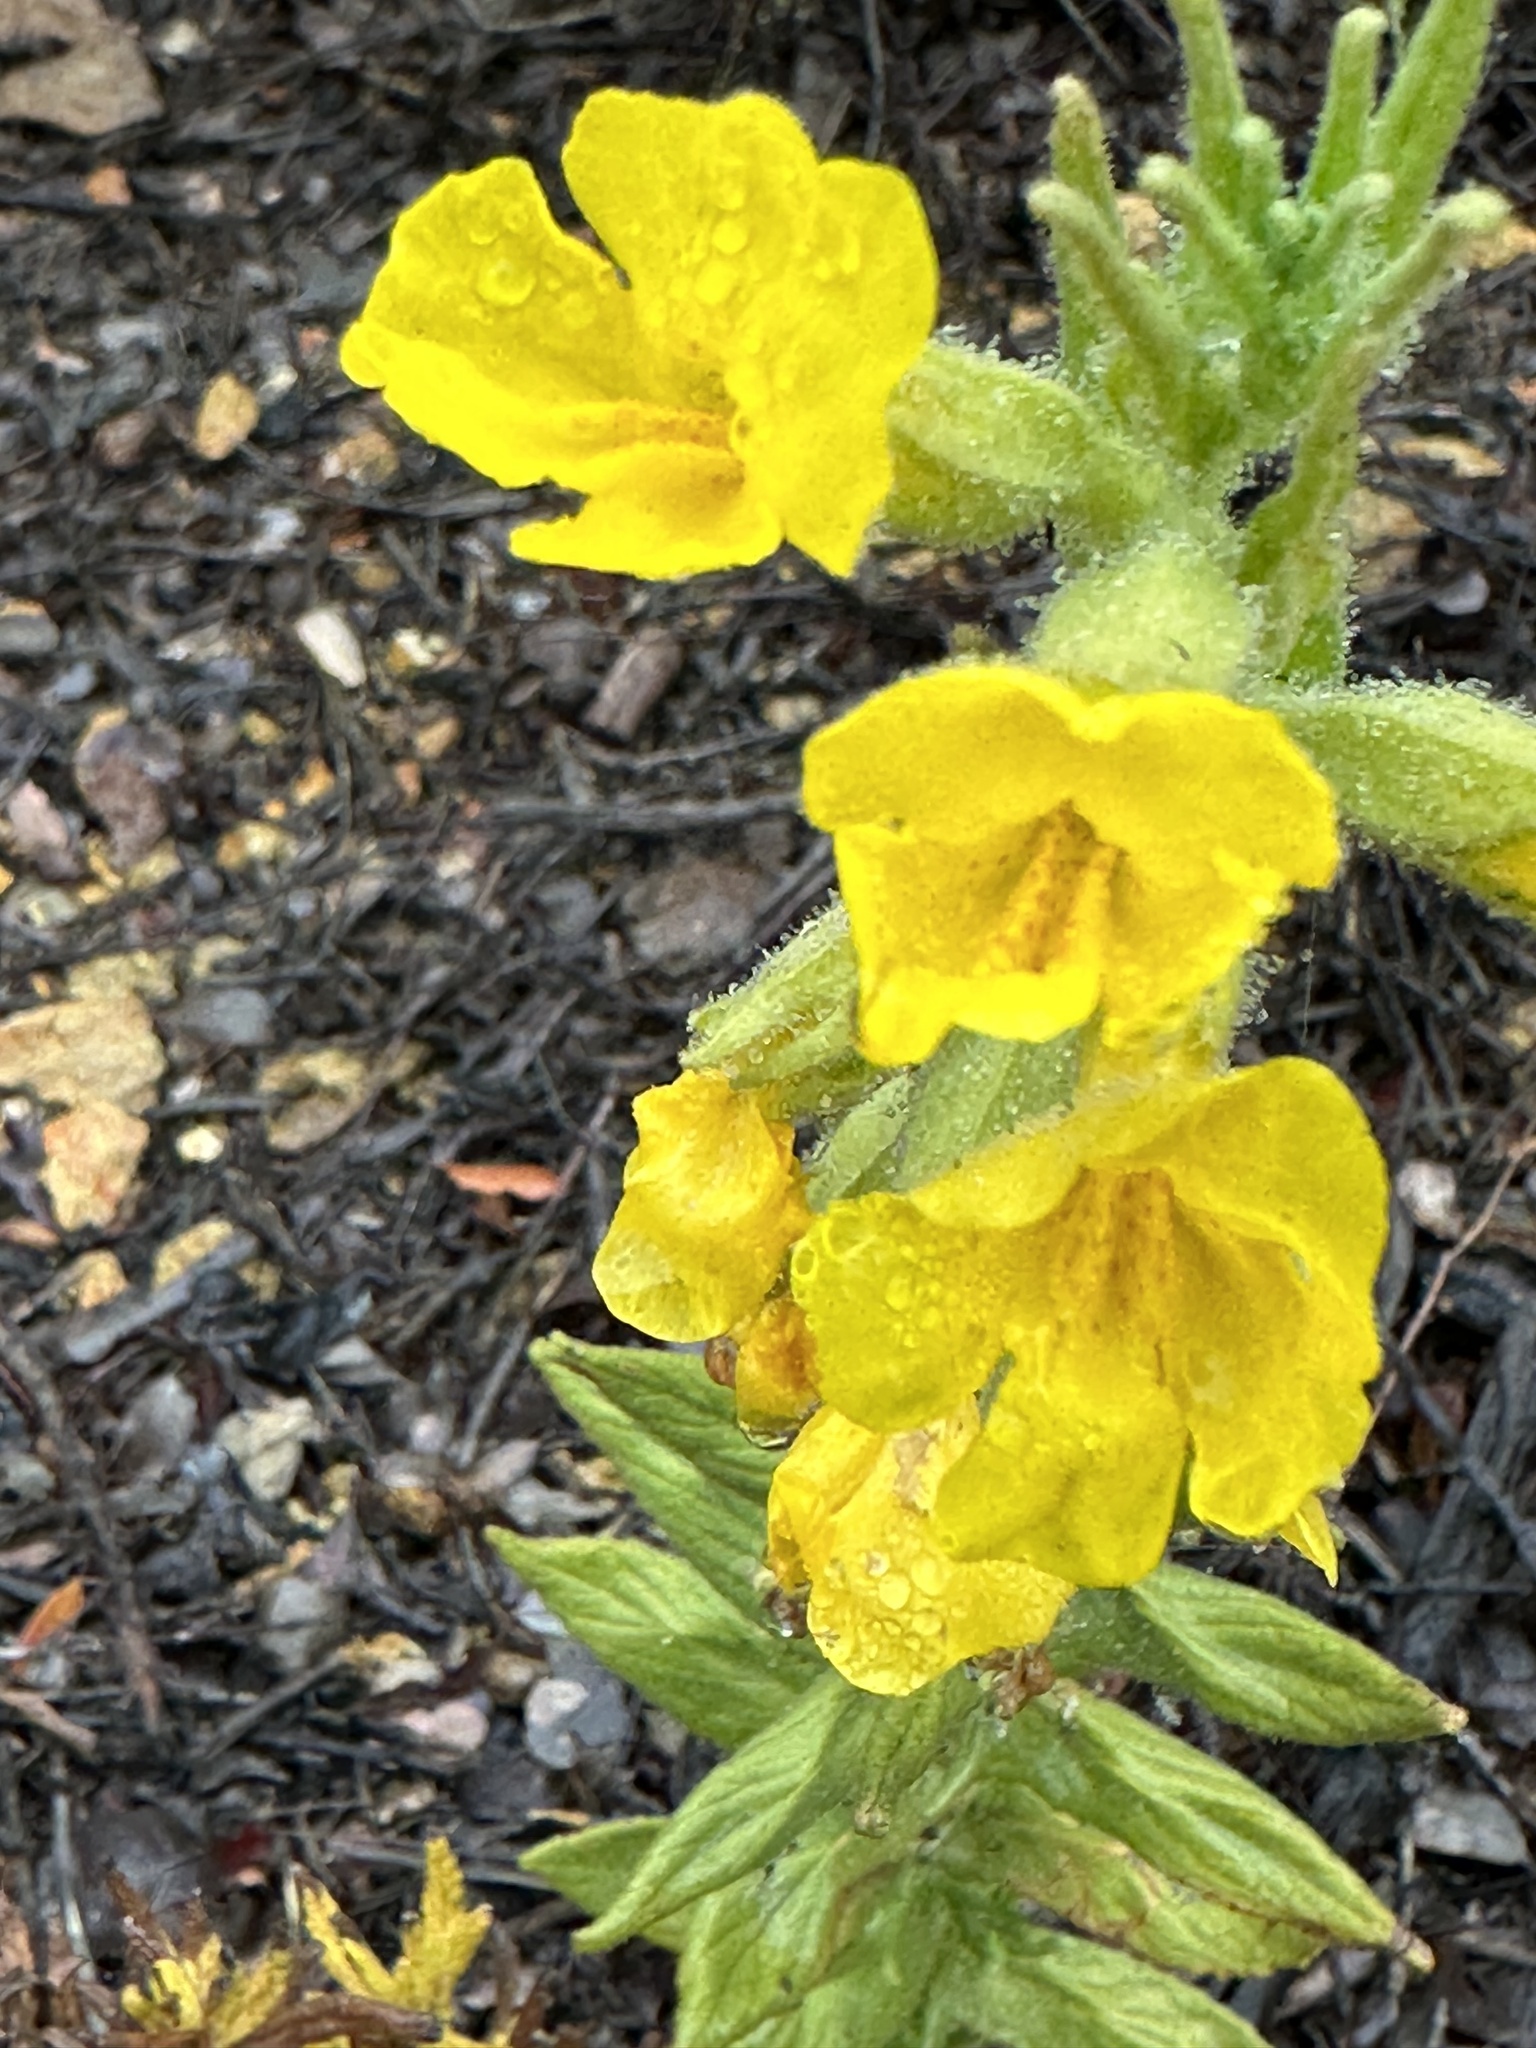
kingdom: Plantae
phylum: Tracheophyta
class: Magnoliopsida
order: Lamiales
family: Phrymaceae
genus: Diplacus
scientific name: Diplacus clevelandii
